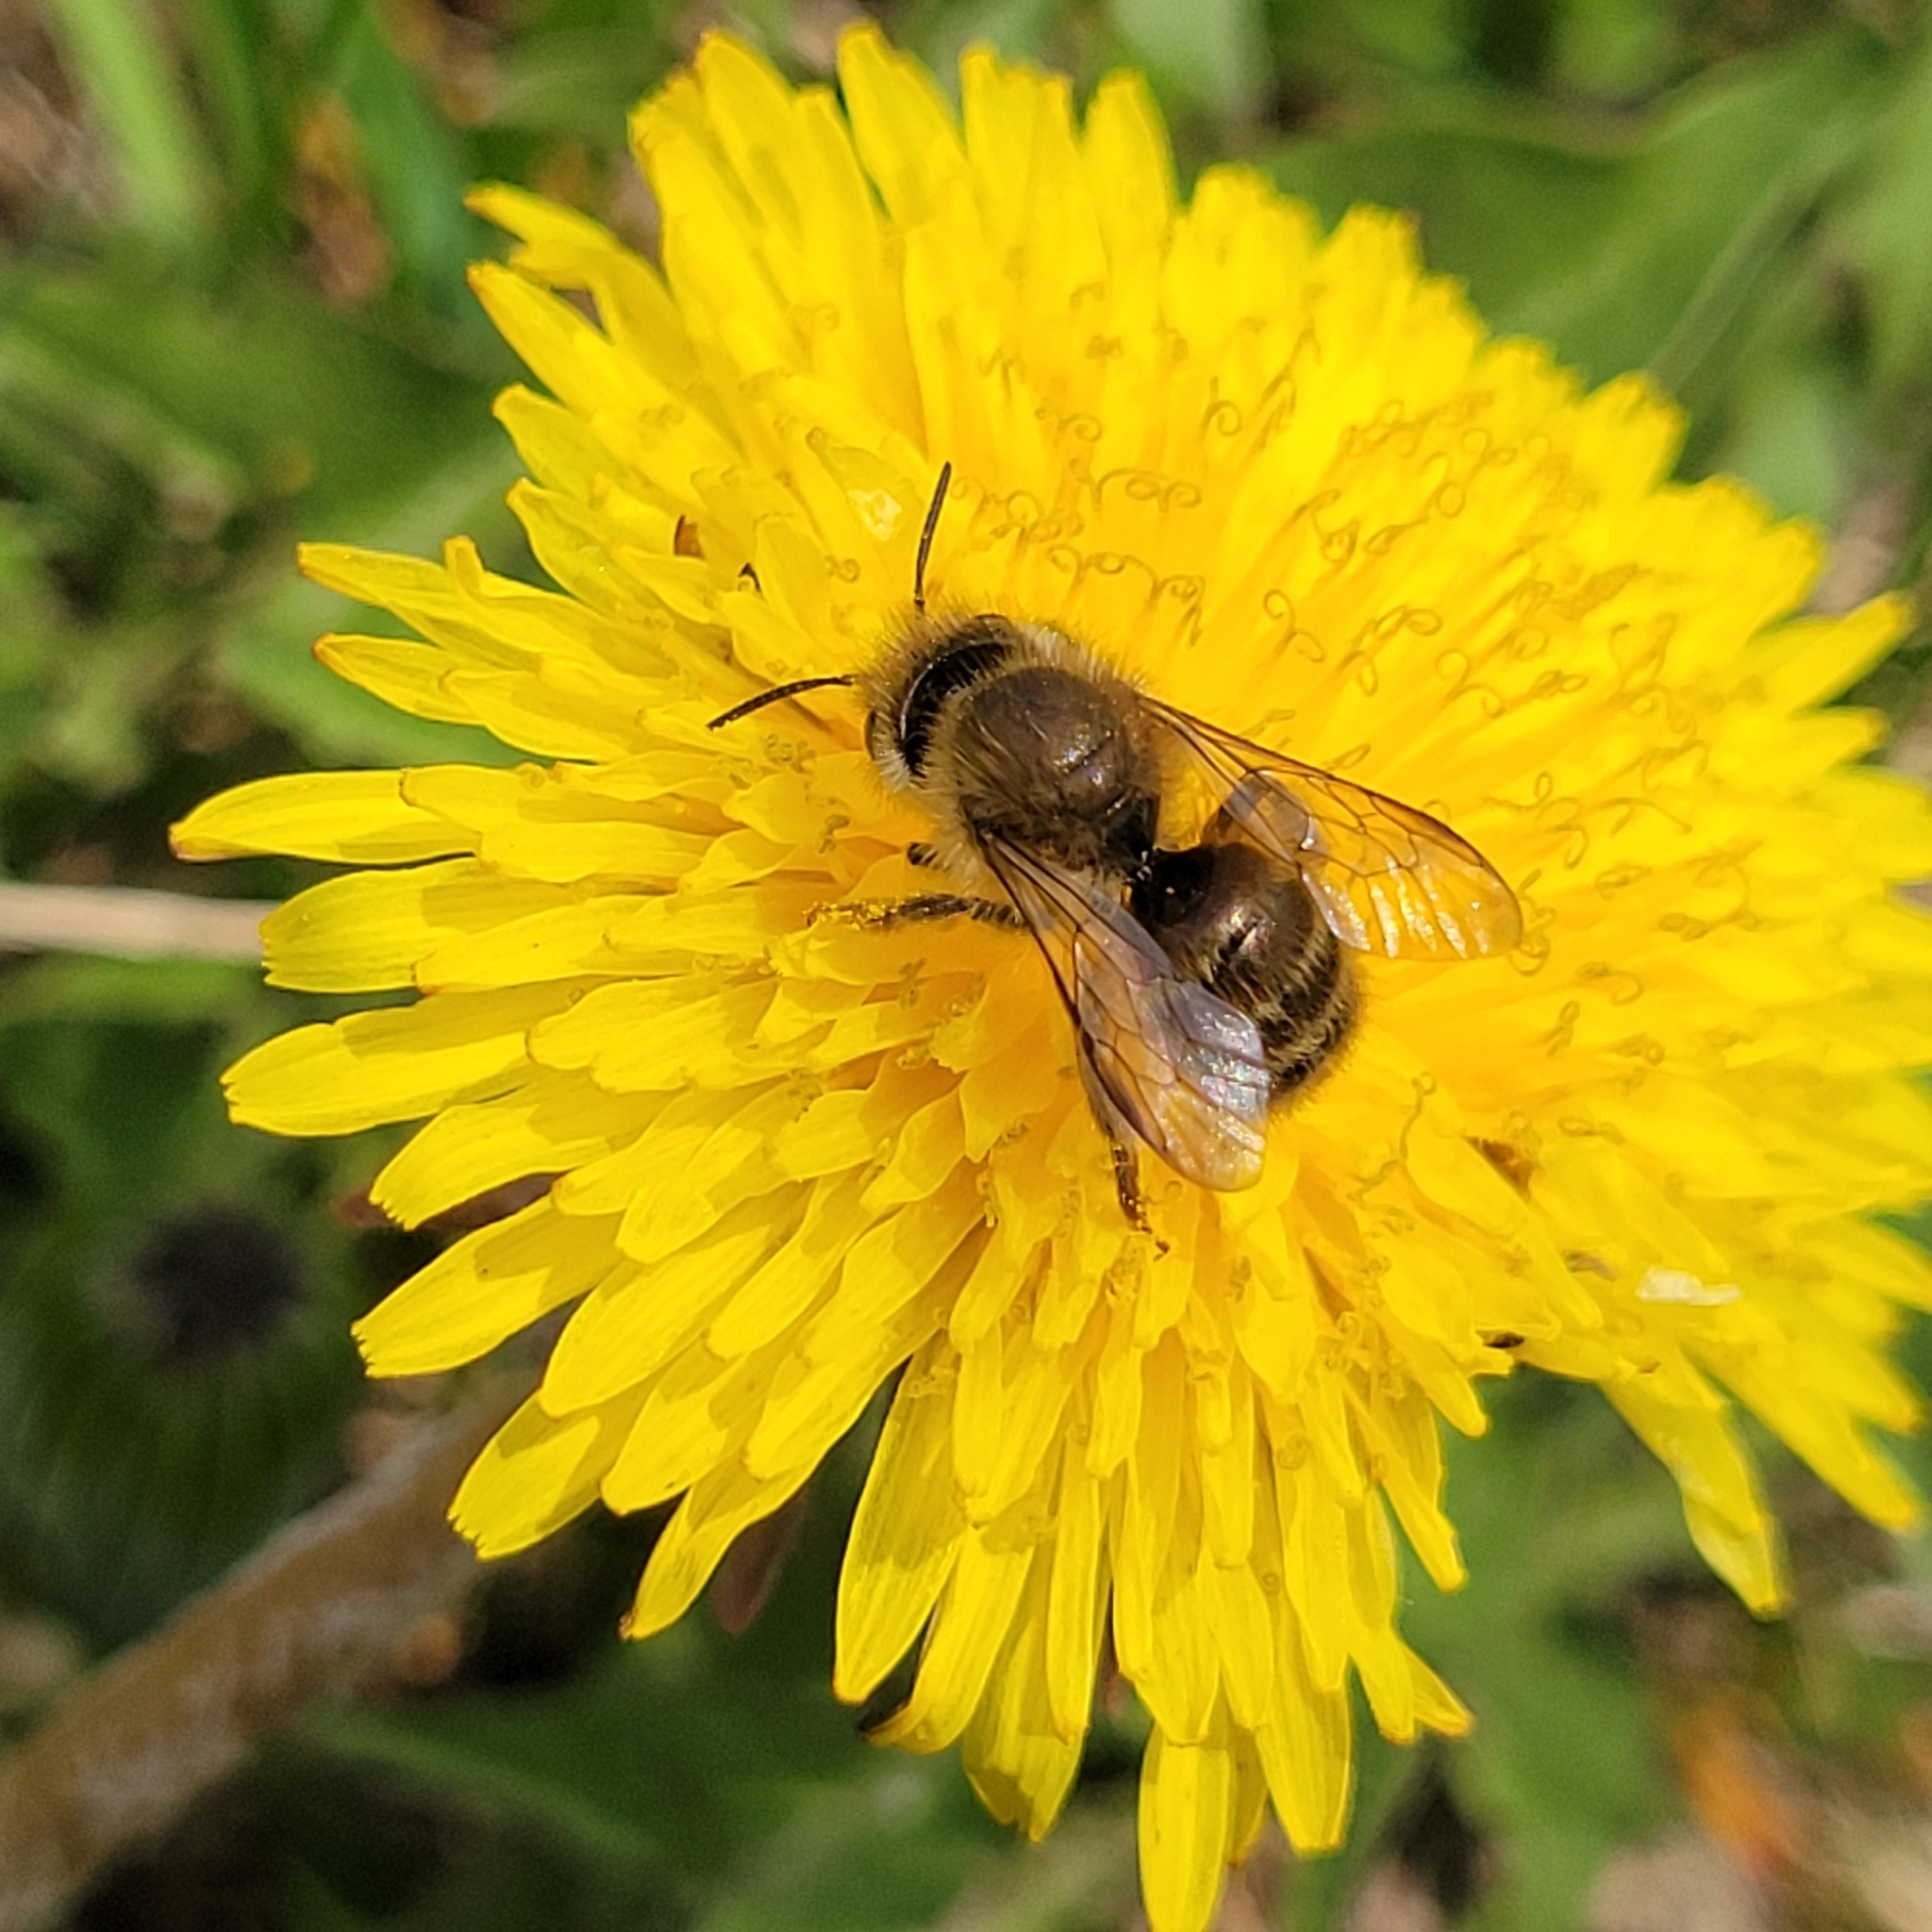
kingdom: Animalia
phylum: Arthropoda
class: Insecta
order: Hymenoptera
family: Megachilidae
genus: Osmia
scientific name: Osmia cornifrons
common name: Horn-faced bee
